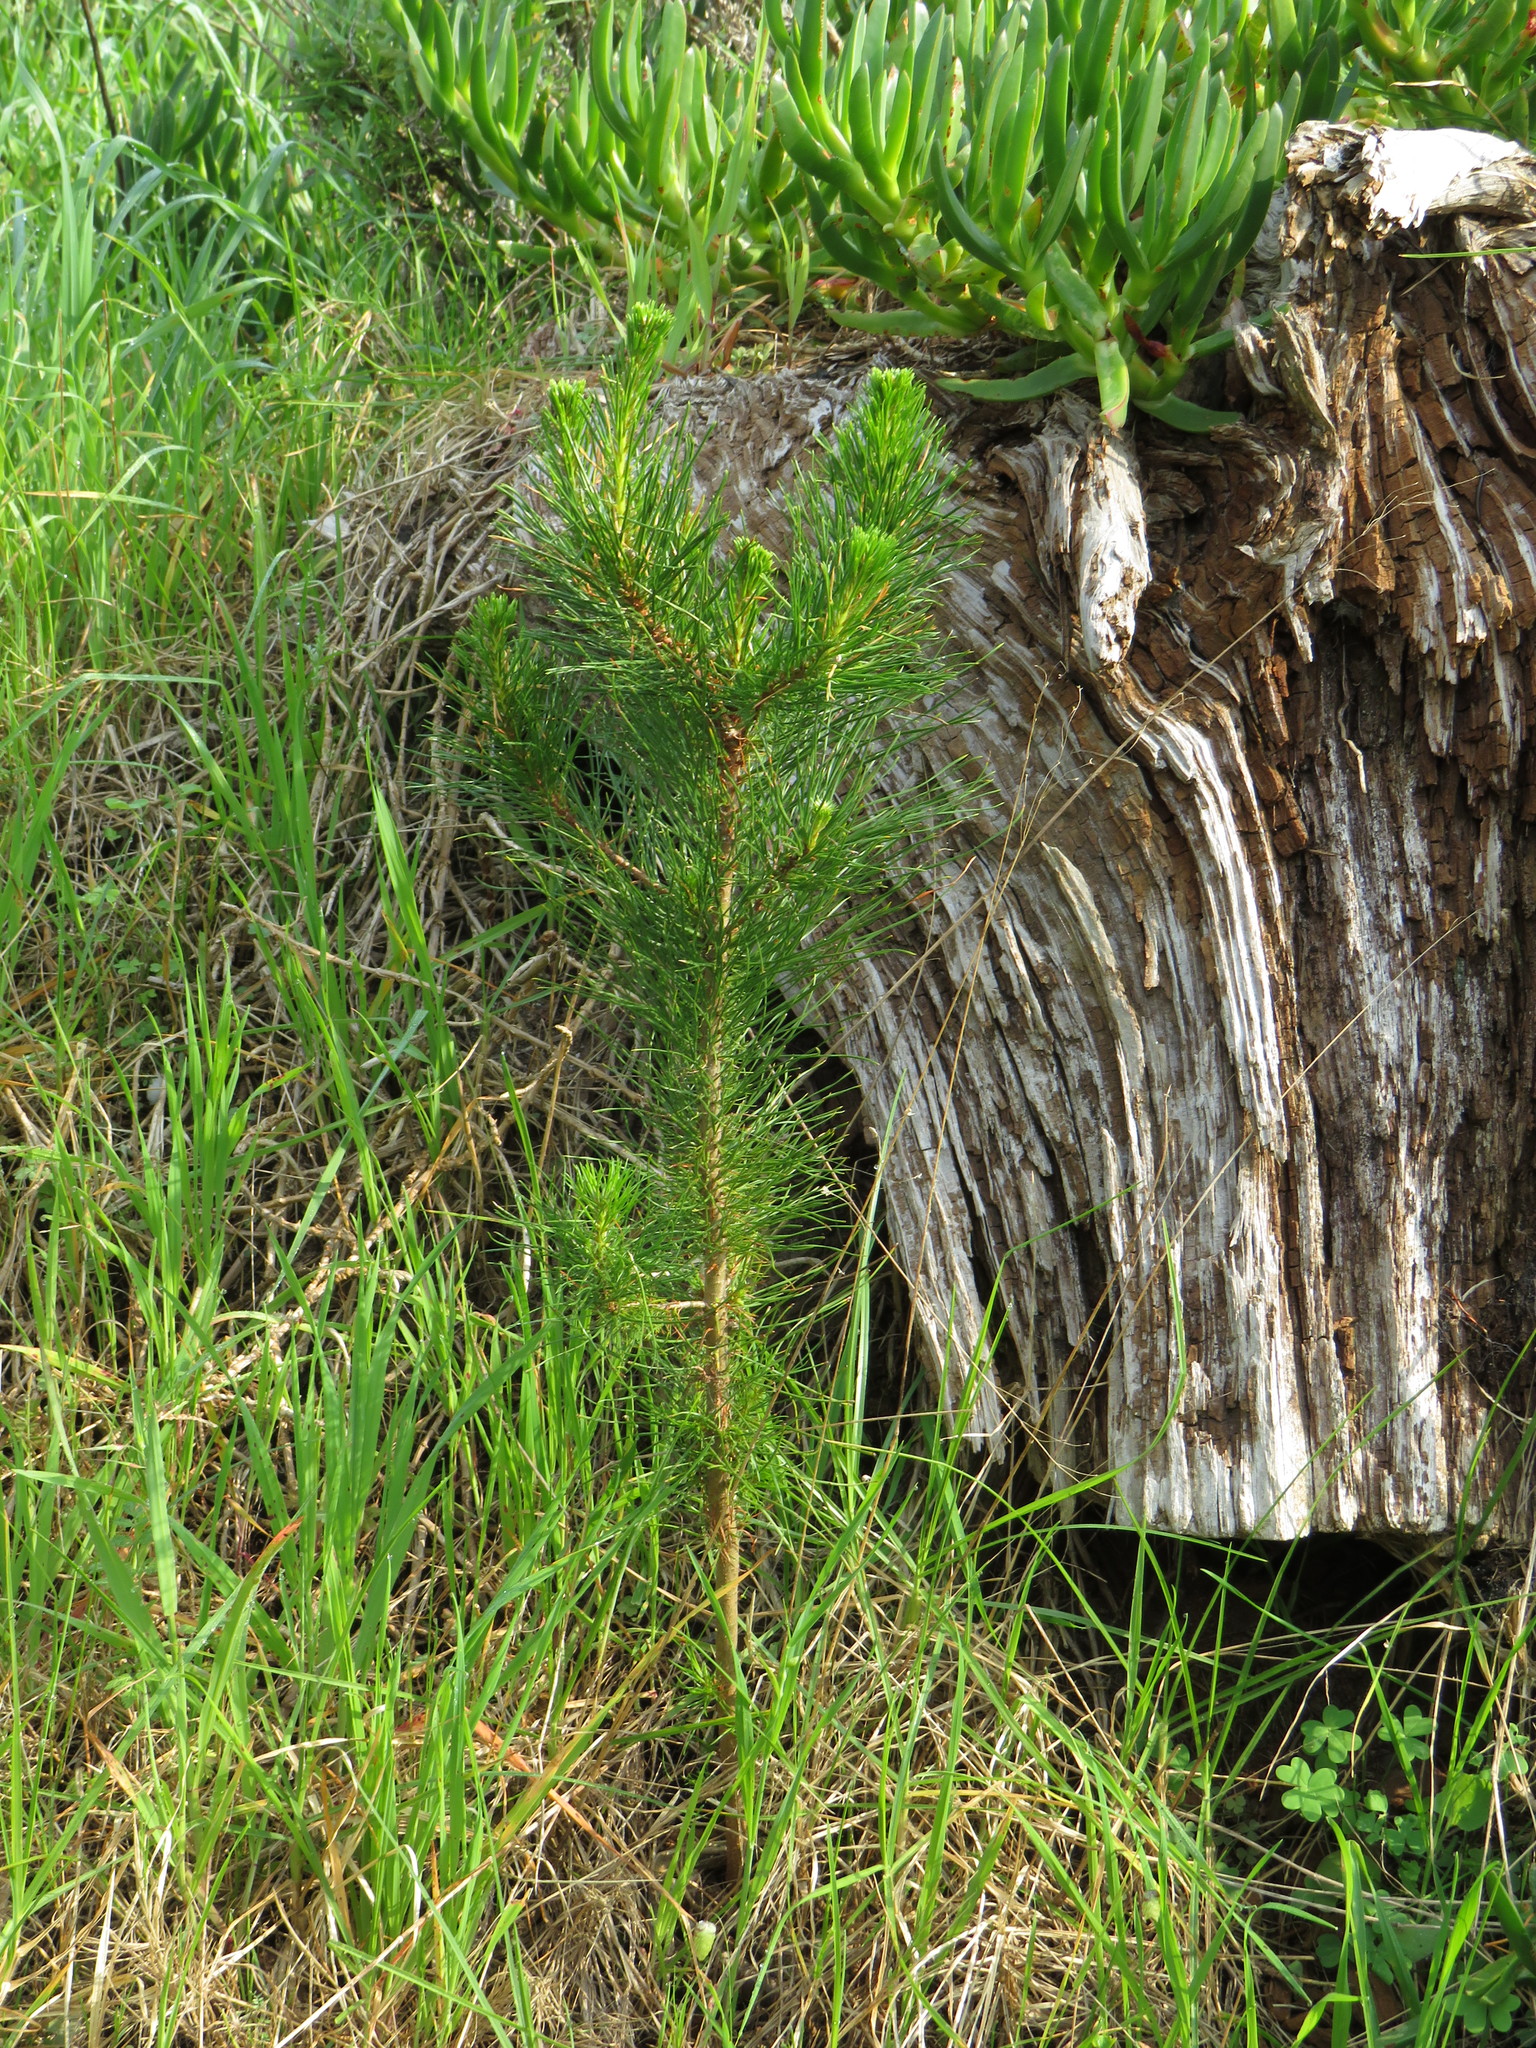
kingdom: Plantae
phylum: Tracheophyta
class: Pinopsida
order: Pinales
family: Pinaceae
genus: Pinus
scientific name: Pinus radiata
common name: Monterey pine
